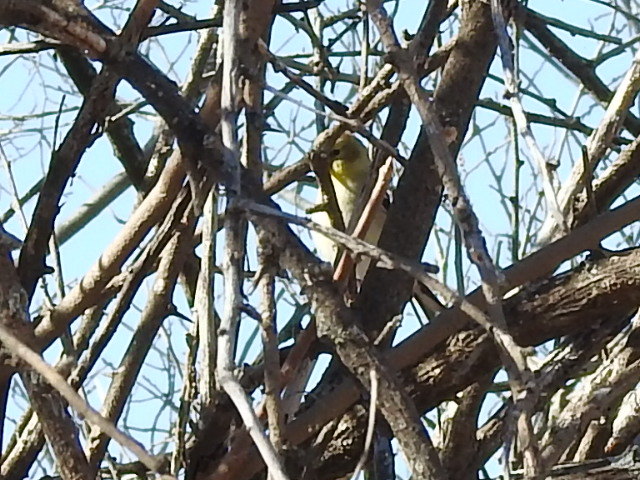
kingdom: Animalia
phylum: Chordata
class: Aves
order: Passeriformes
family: Fringillidae
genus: Spinus
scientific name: Spinus tristis
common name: American goldfinch
